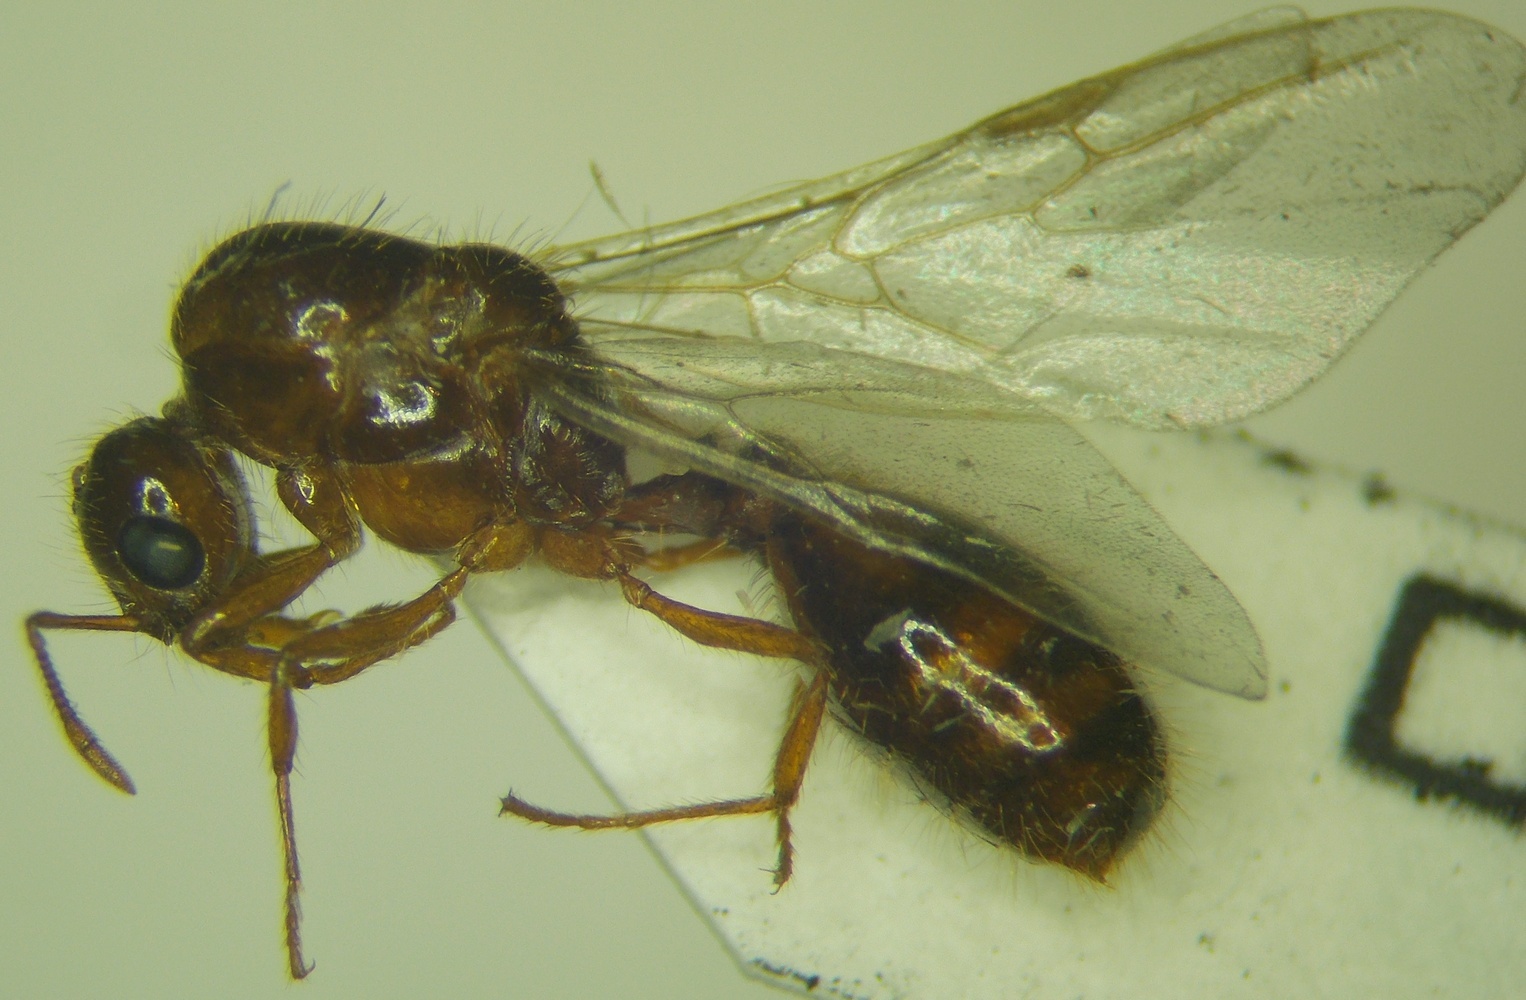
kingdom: Animalia
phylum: Arthropoda
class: Insecta
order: Hymenoptera
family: Formicidae
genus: Solenopsis
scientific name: Solenopsis geminata
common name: Tropical fire ant
